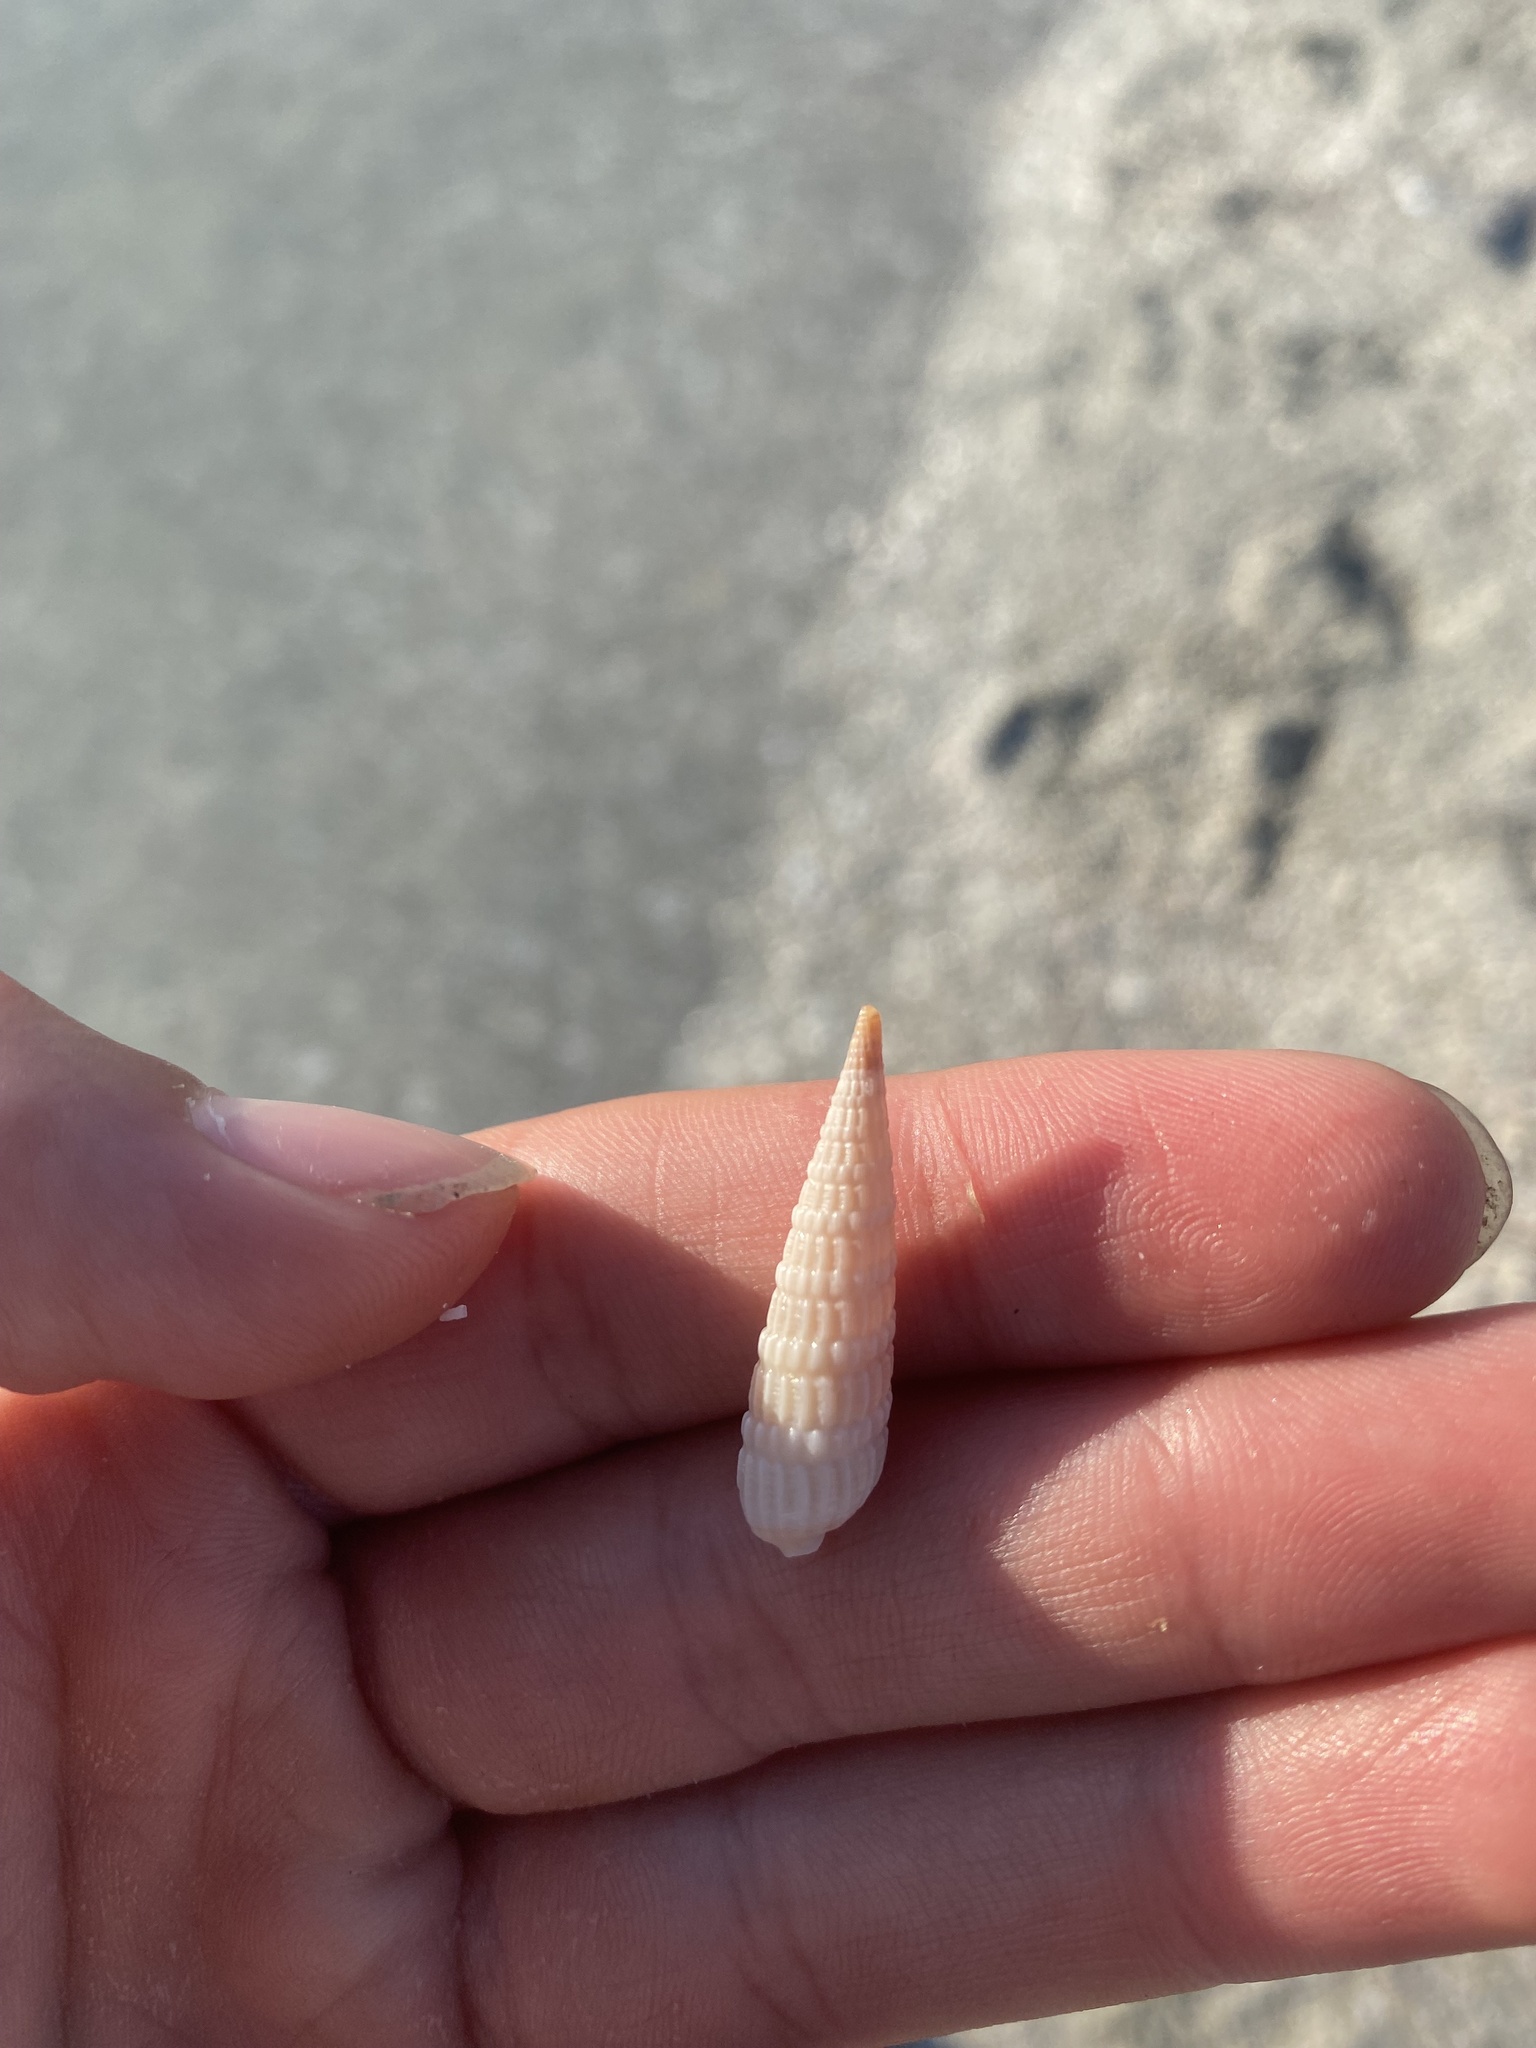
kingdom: Animalia
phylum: Mollusca
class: Gastropoda
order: Neogastropoda
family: Terebridae
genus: Neoterebra
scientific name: Neoterebra dislocata
